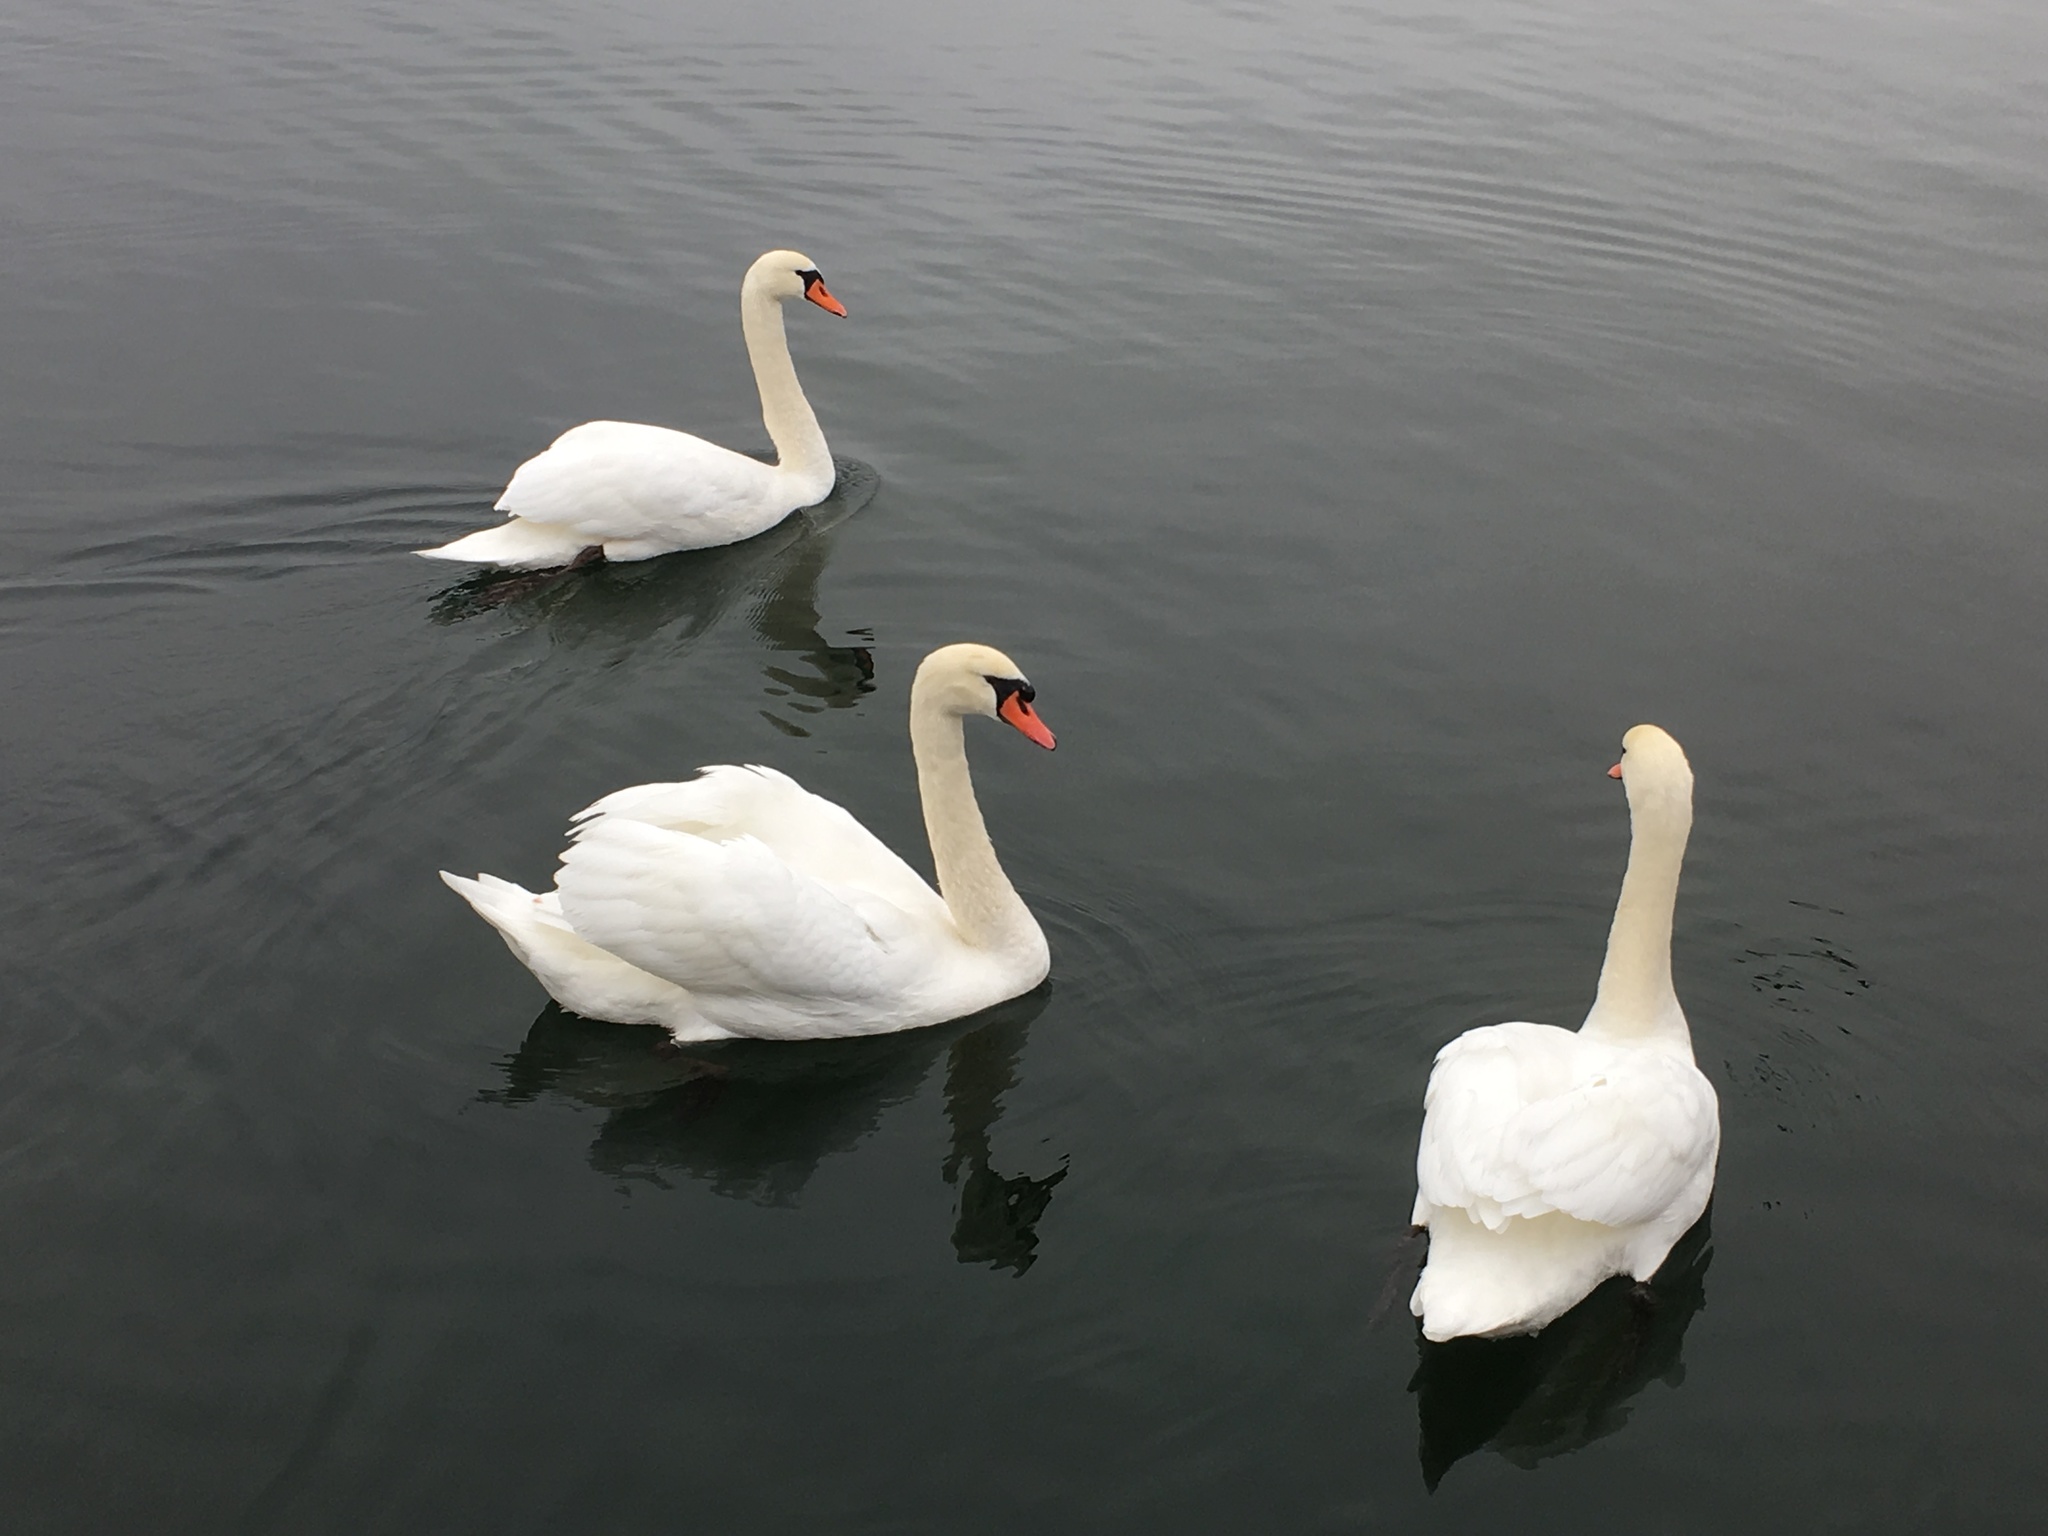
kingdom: Animalia
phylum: Chordata
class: Aves
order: Anseriformes
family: Anatidae
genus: Cygnus
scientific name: Cygnus olor
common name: Mute swan
